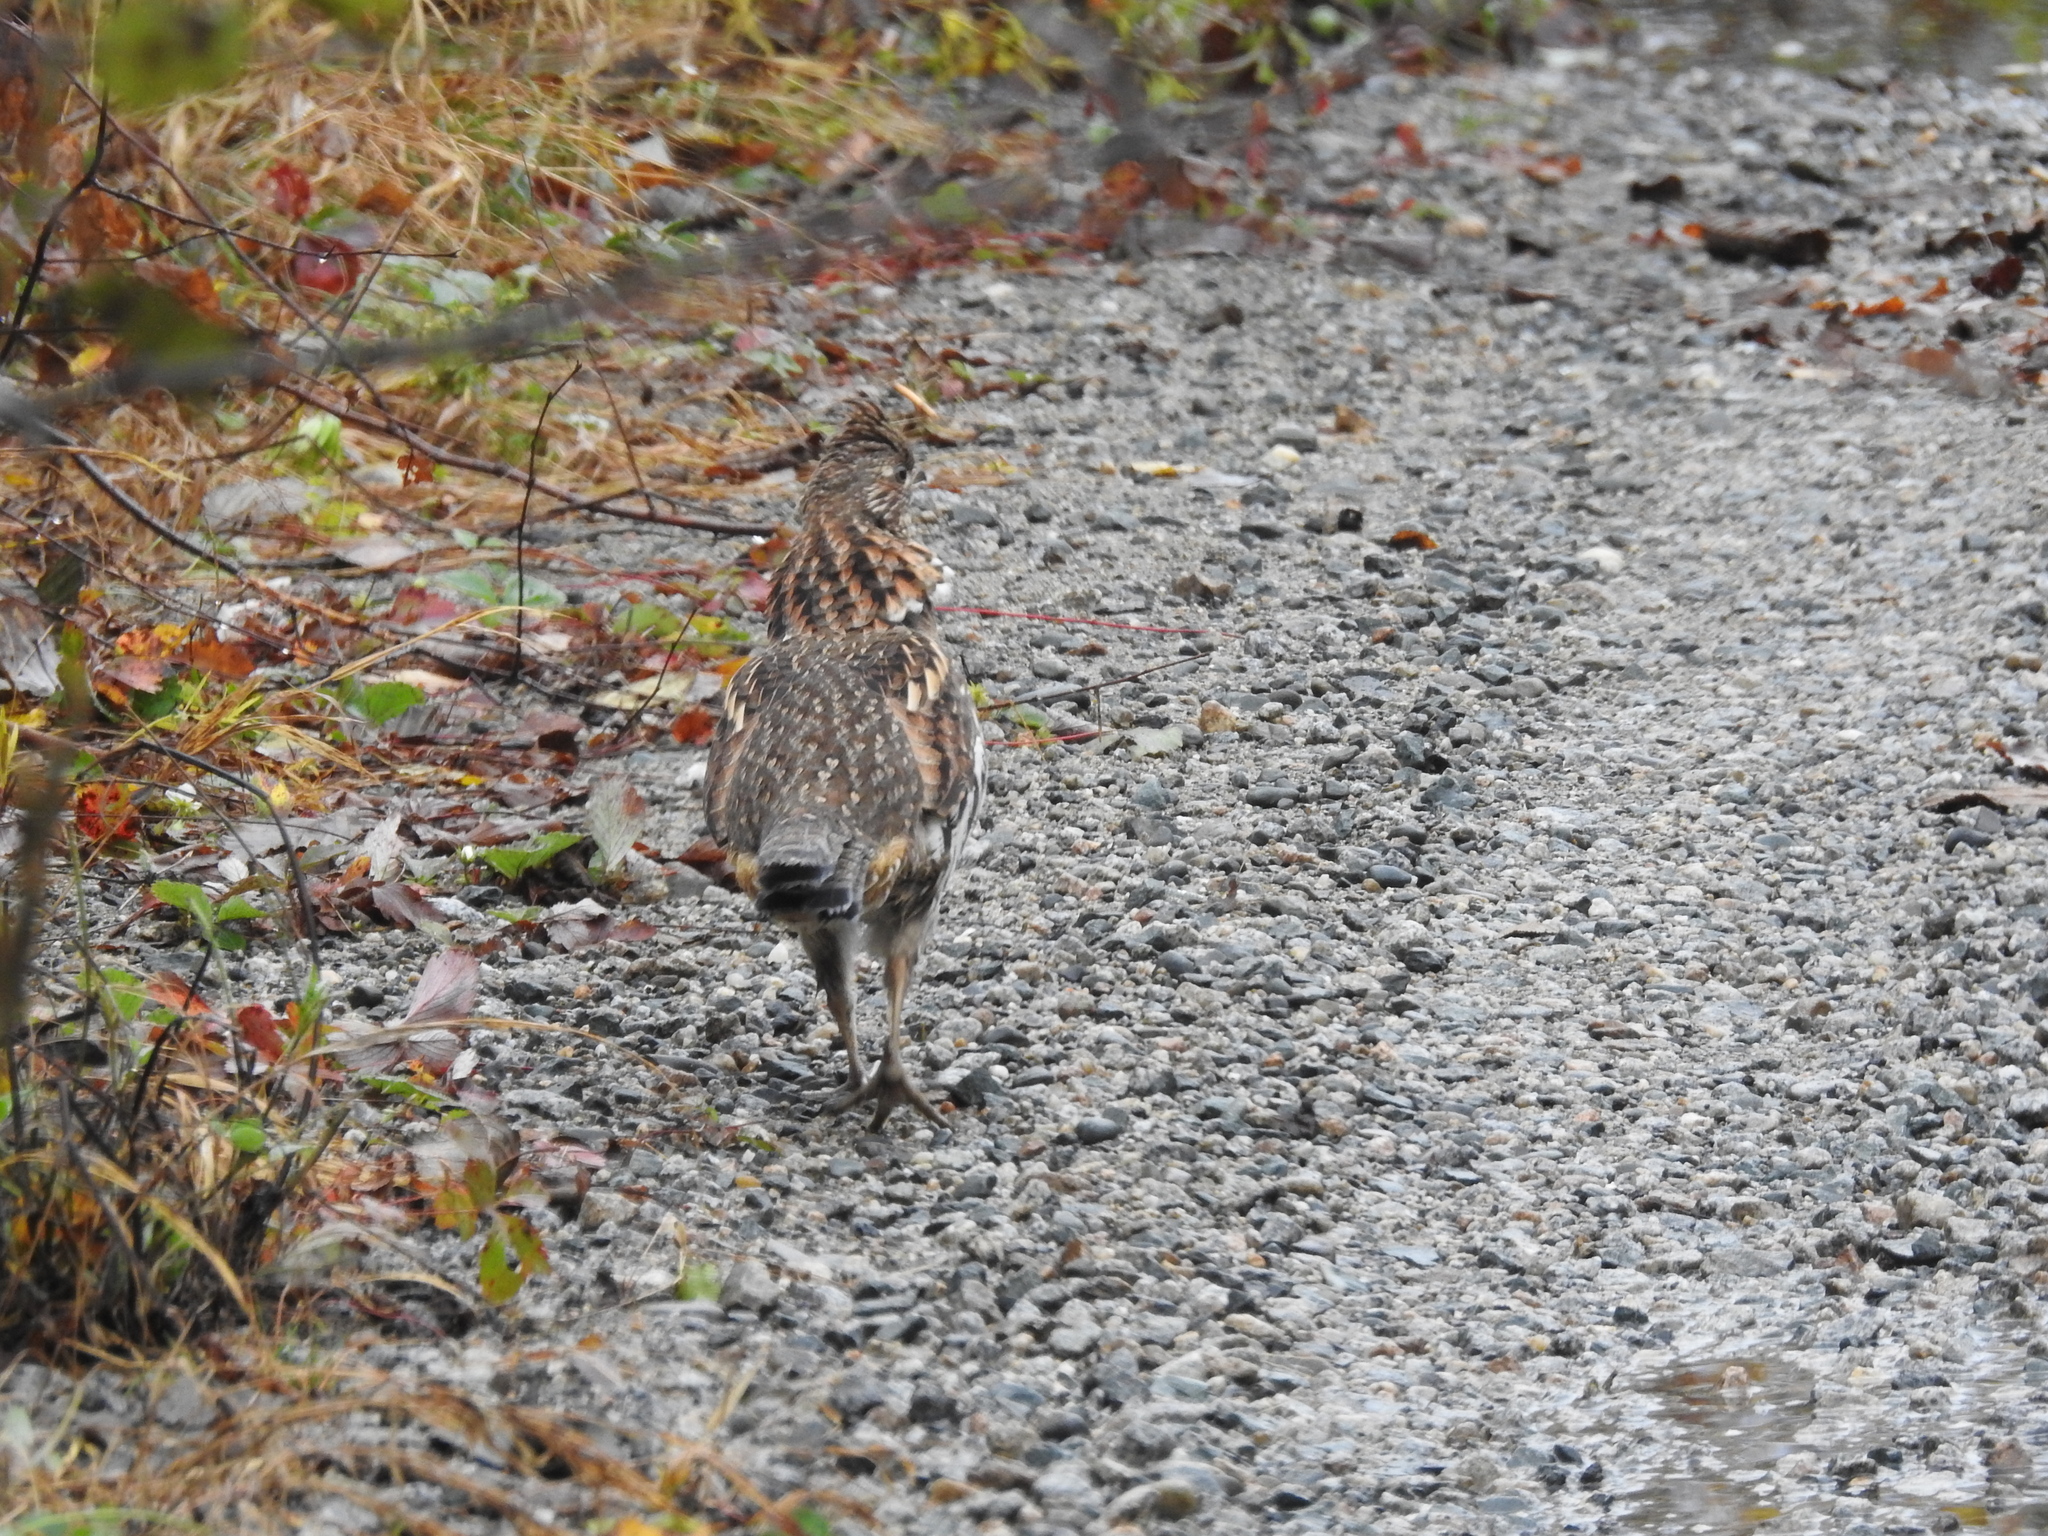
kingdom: Animalia
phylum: Chordata
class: Aves
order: Galliformes
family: Phasianidae
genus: Bonasa
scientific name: Bonasa umbellus
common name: Ruffed grouse
